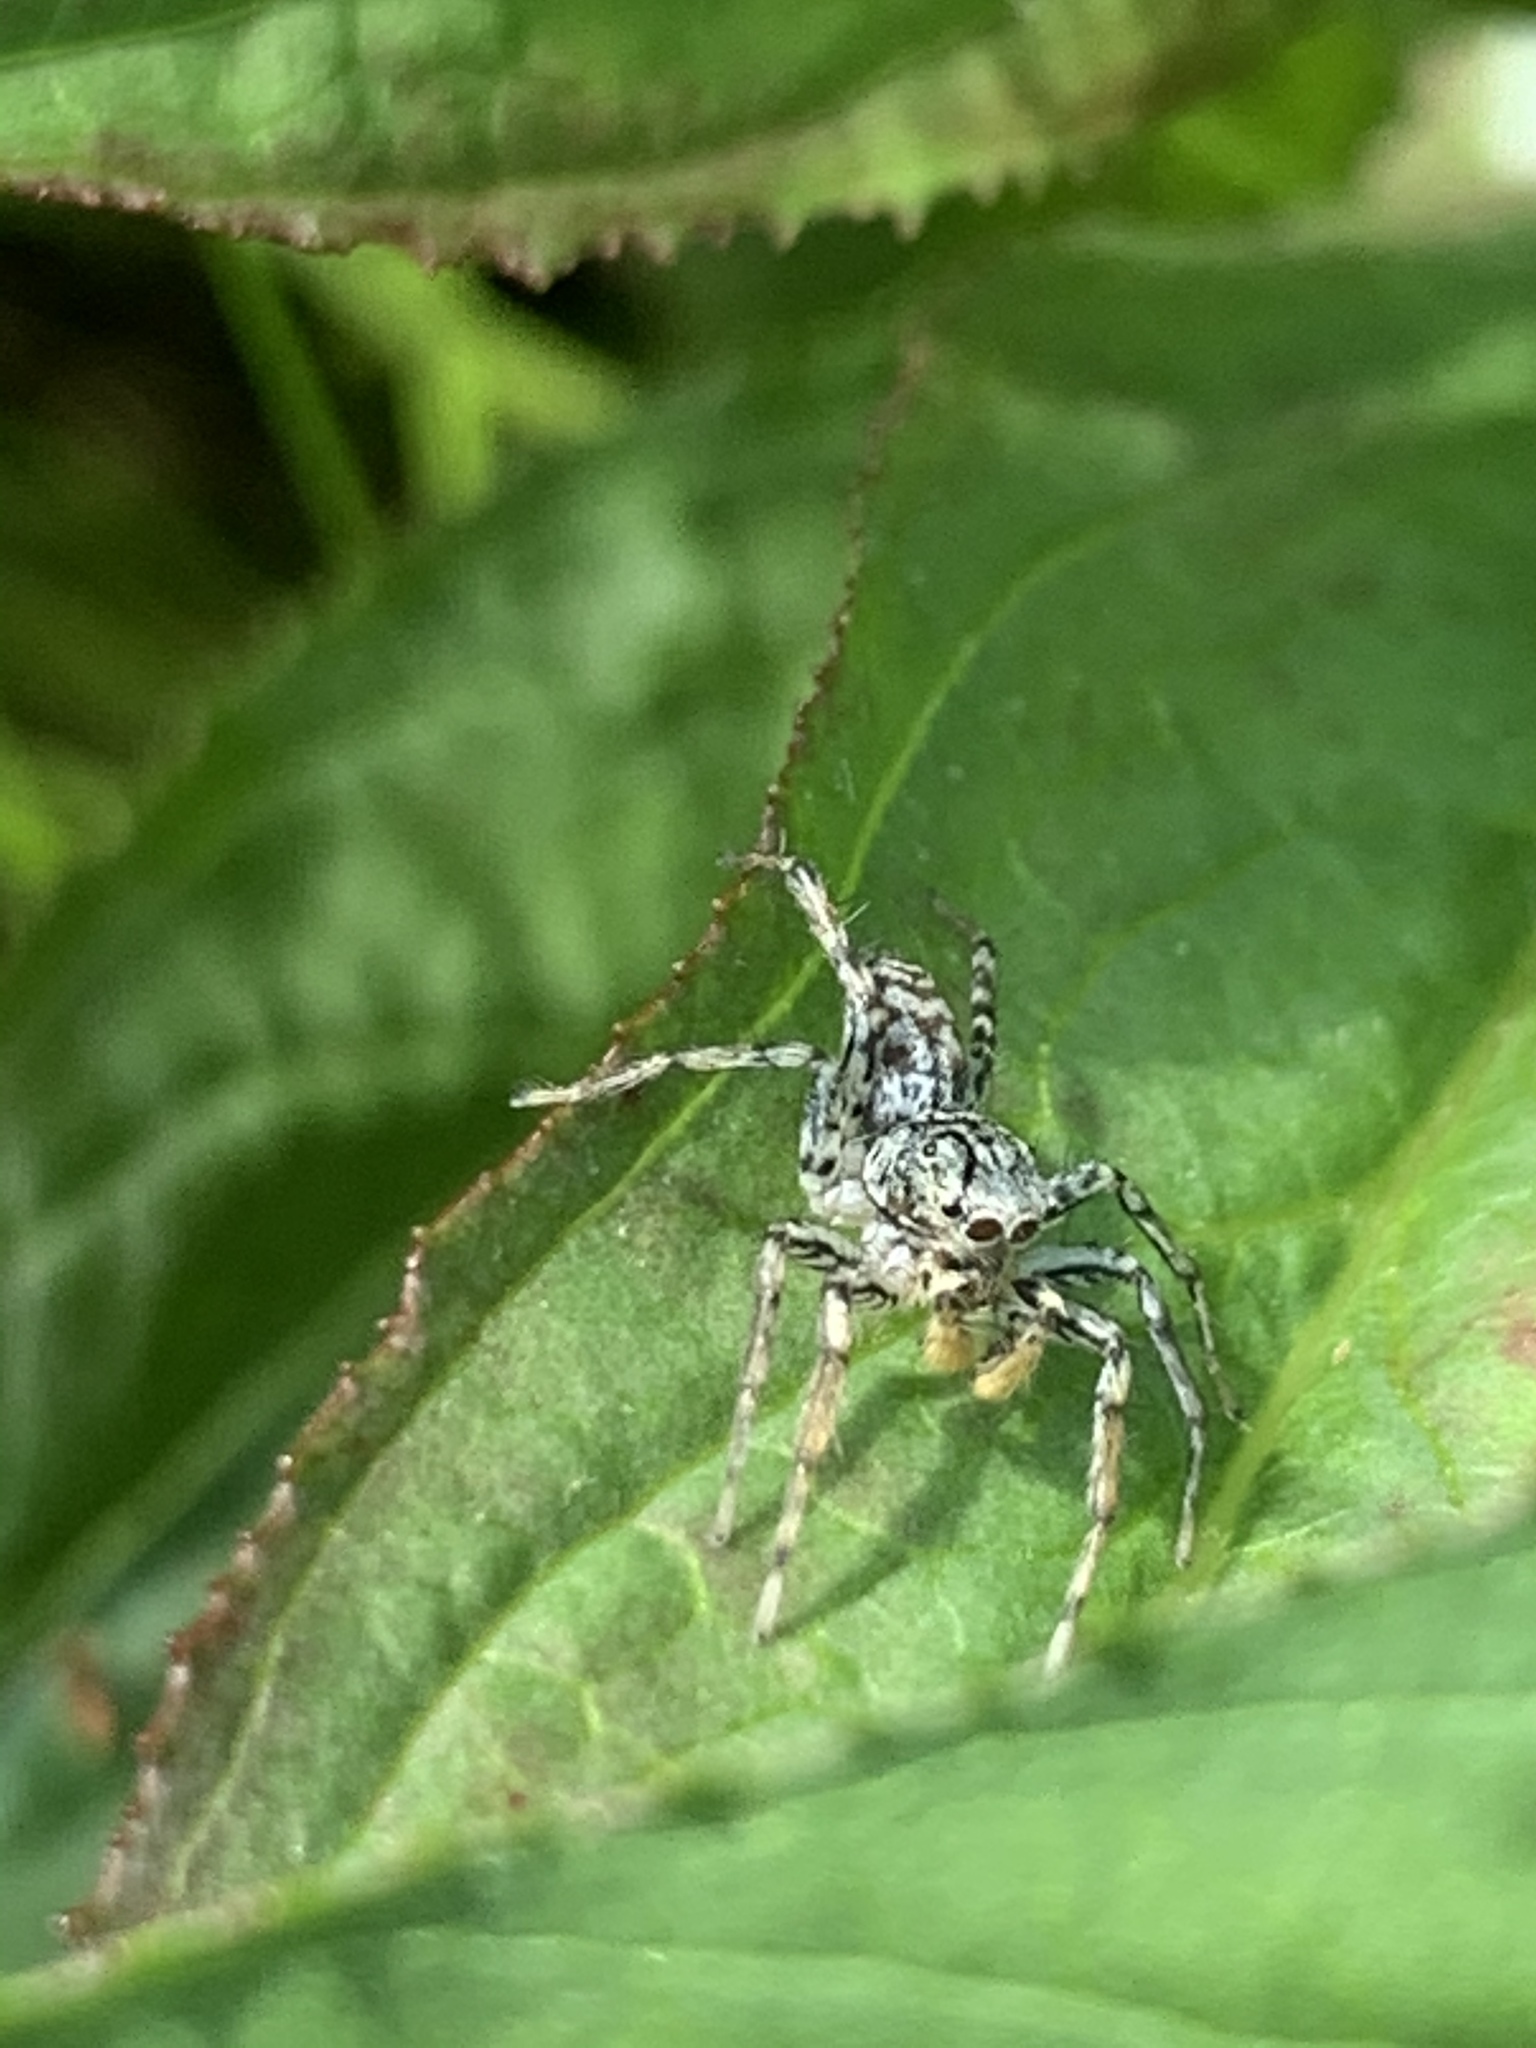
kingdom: Animalia
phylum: Arthropoda
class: Arachnida
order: Araneae
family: Salticidae
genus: Maevia
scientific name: Maevia inclemens
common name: Dimorphic jumper
